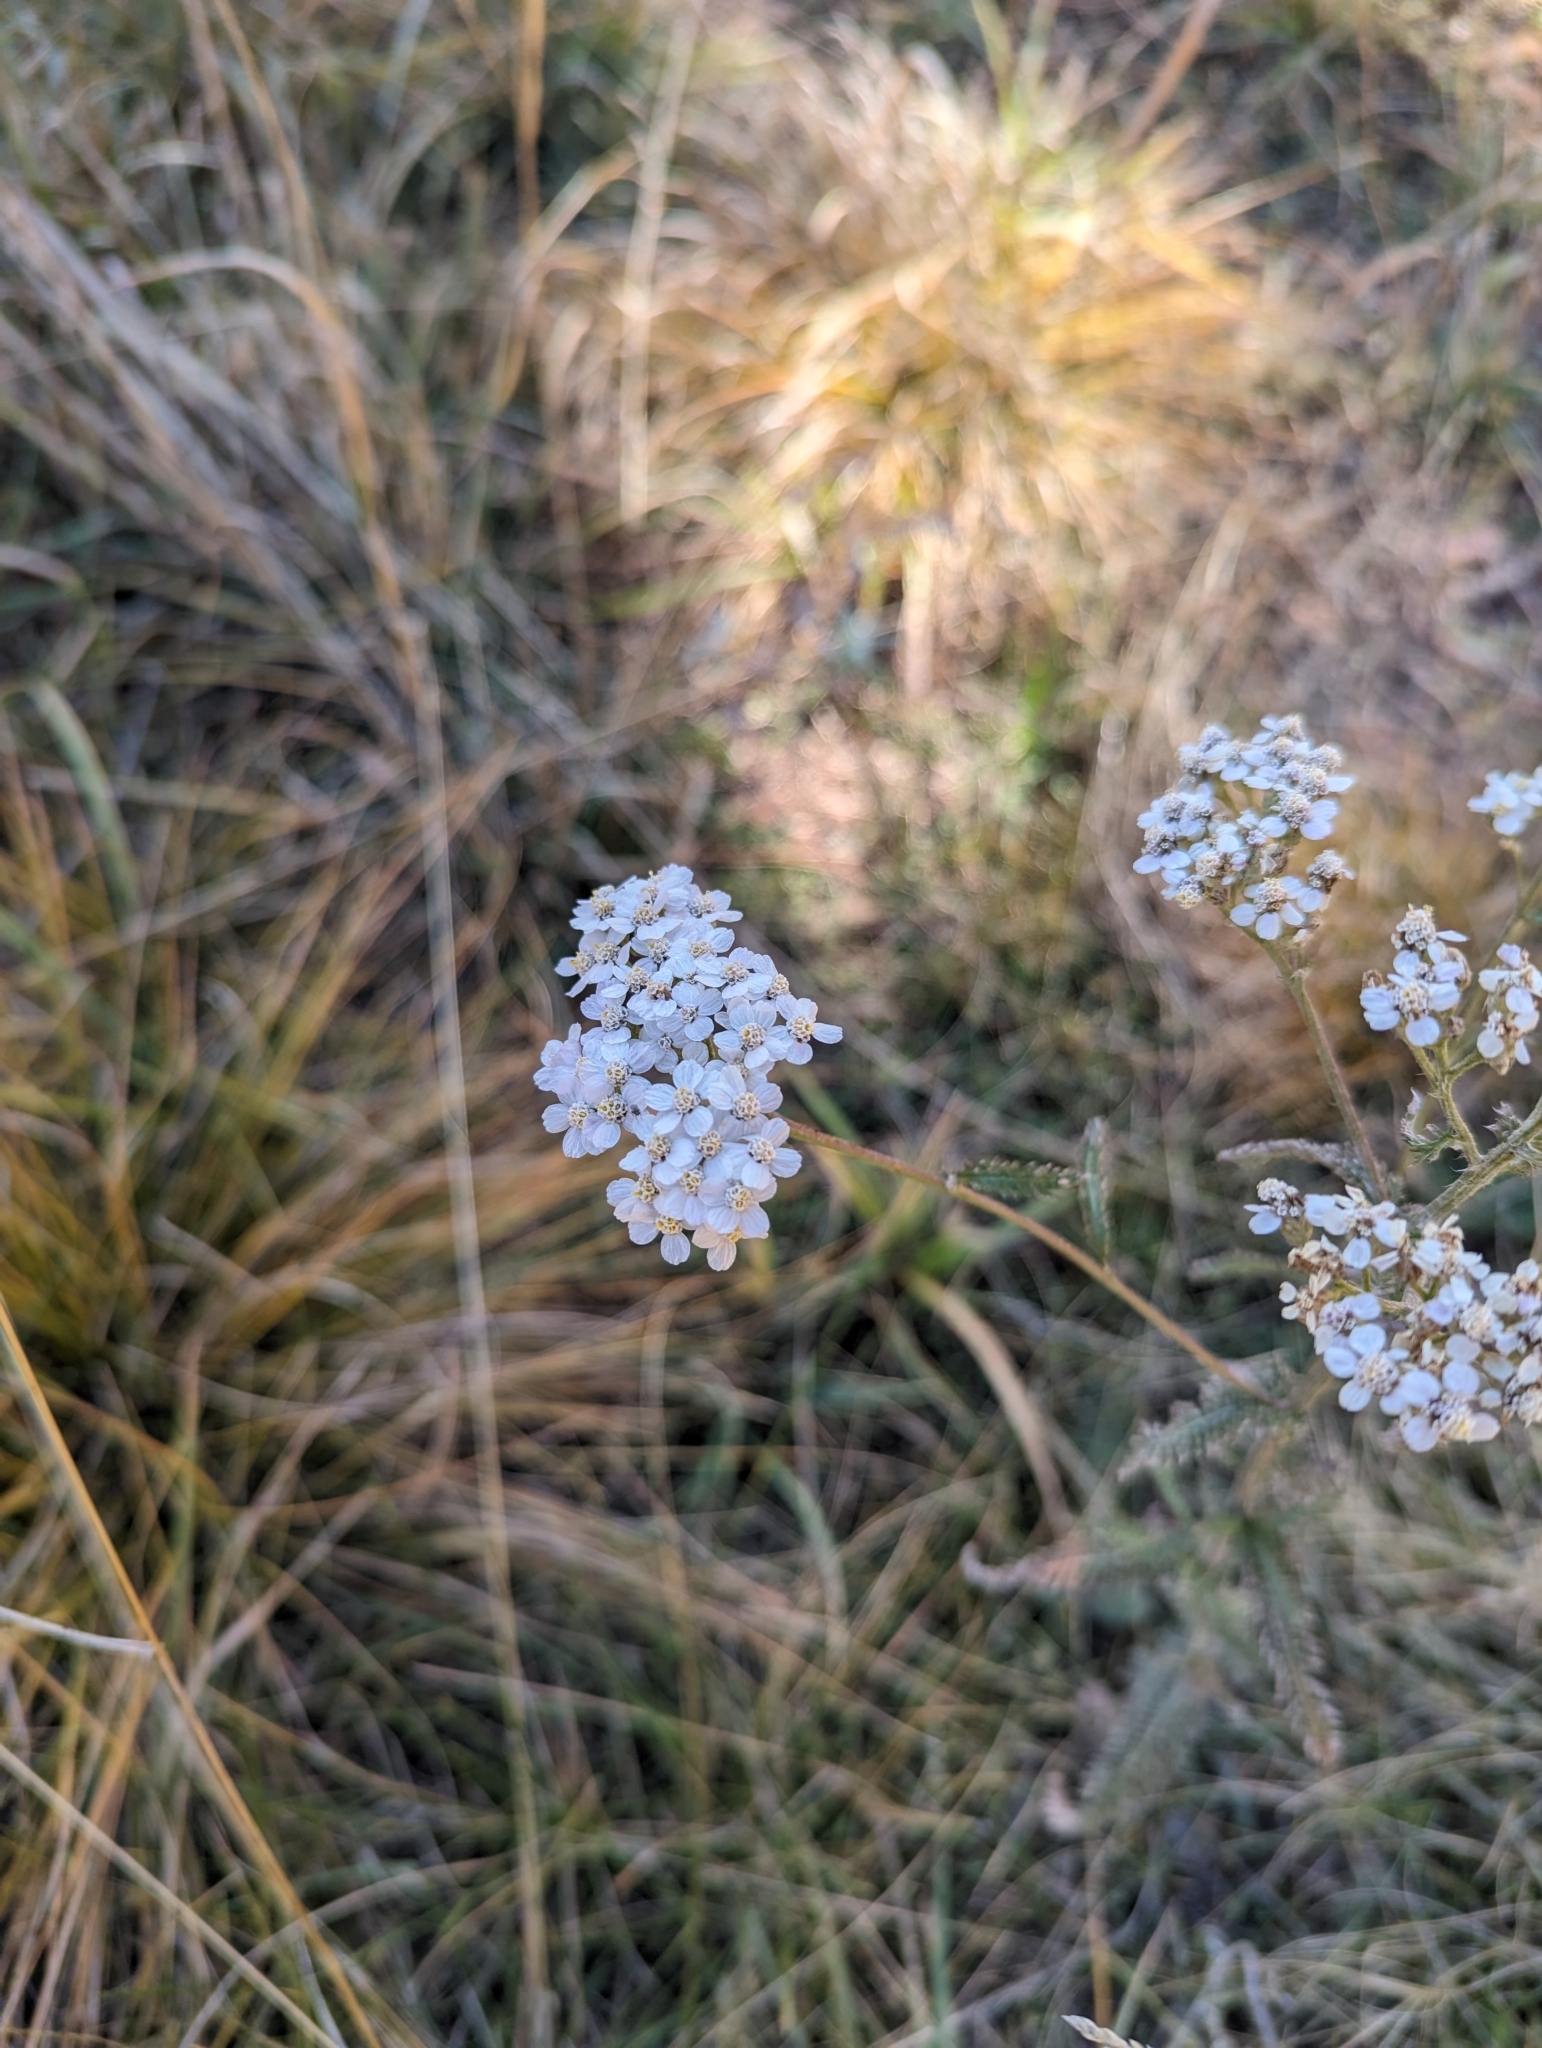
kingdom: Plantae
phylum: Tracheophyta
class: Magnoliopsida
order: Asterales
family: Asteraceae
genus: Achillea
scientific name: Achillea millefolium
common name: Yarrow
